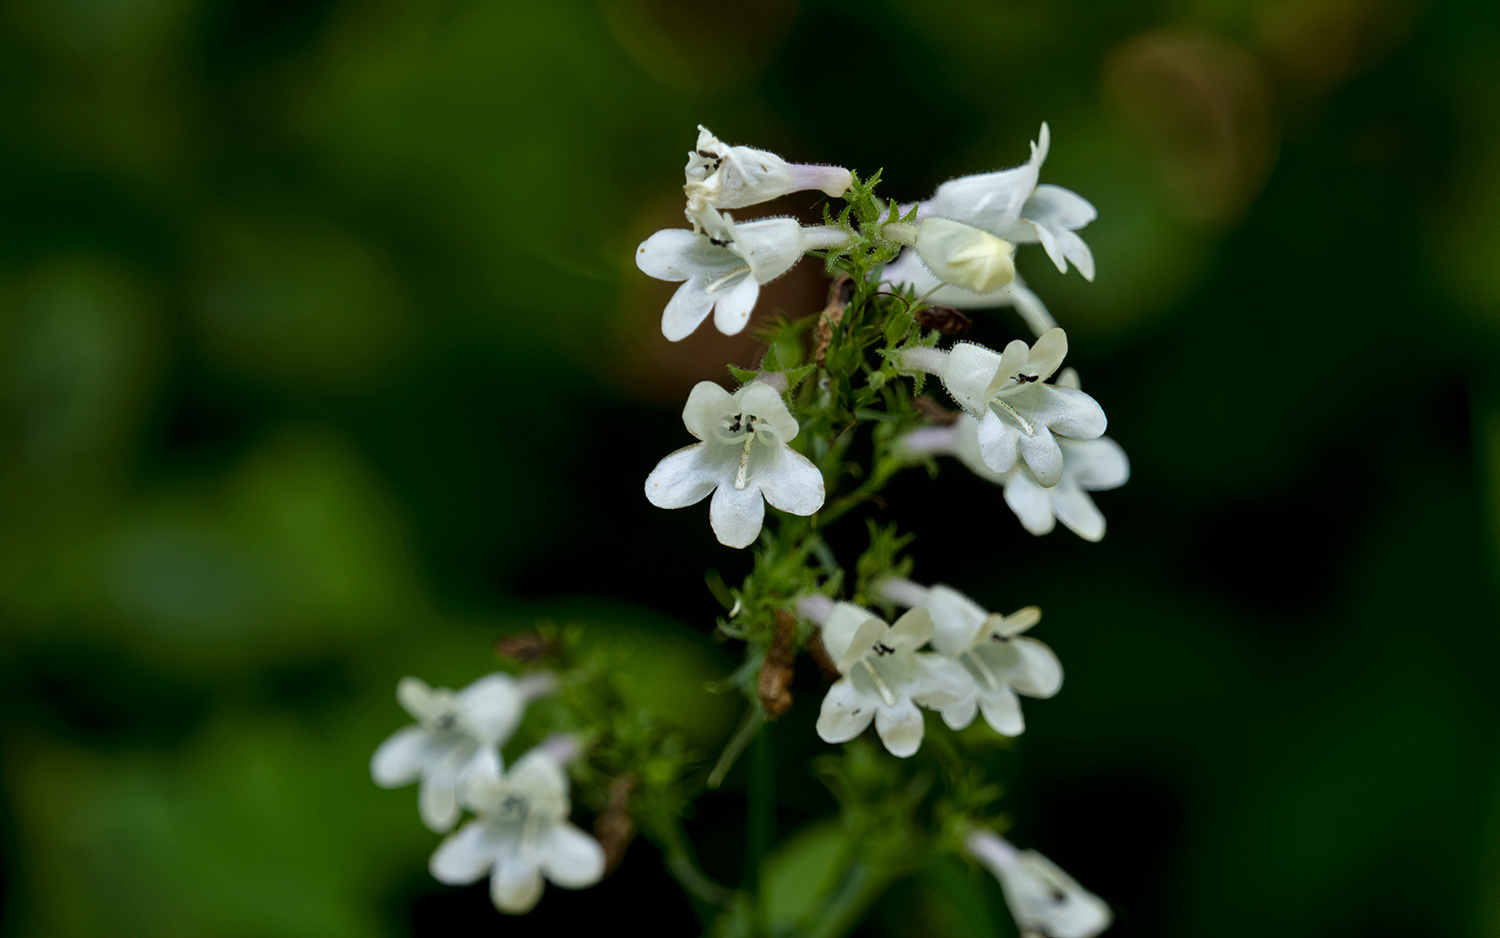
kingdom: Plantae
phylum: Tracheophyta
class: Magnoliopsida
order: Lamiales
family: Plantaginaceae
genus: Penstemon
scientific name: Penstemon digitalis
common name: Foxglove beardtongue
